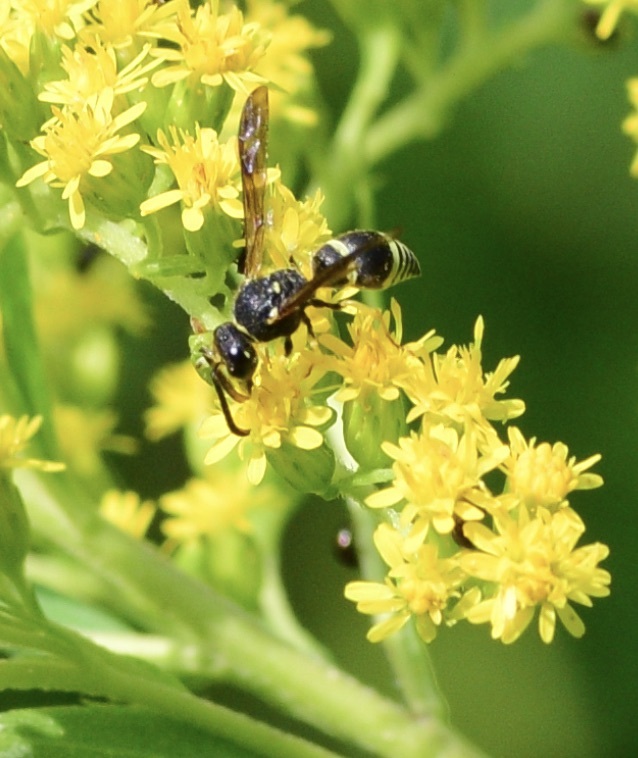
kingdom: Animalia
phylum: Arthropoda
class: Insecta
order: Hymenoptera
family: Vespidae
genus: Ancistrocerus
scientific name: Ancistrocerus
